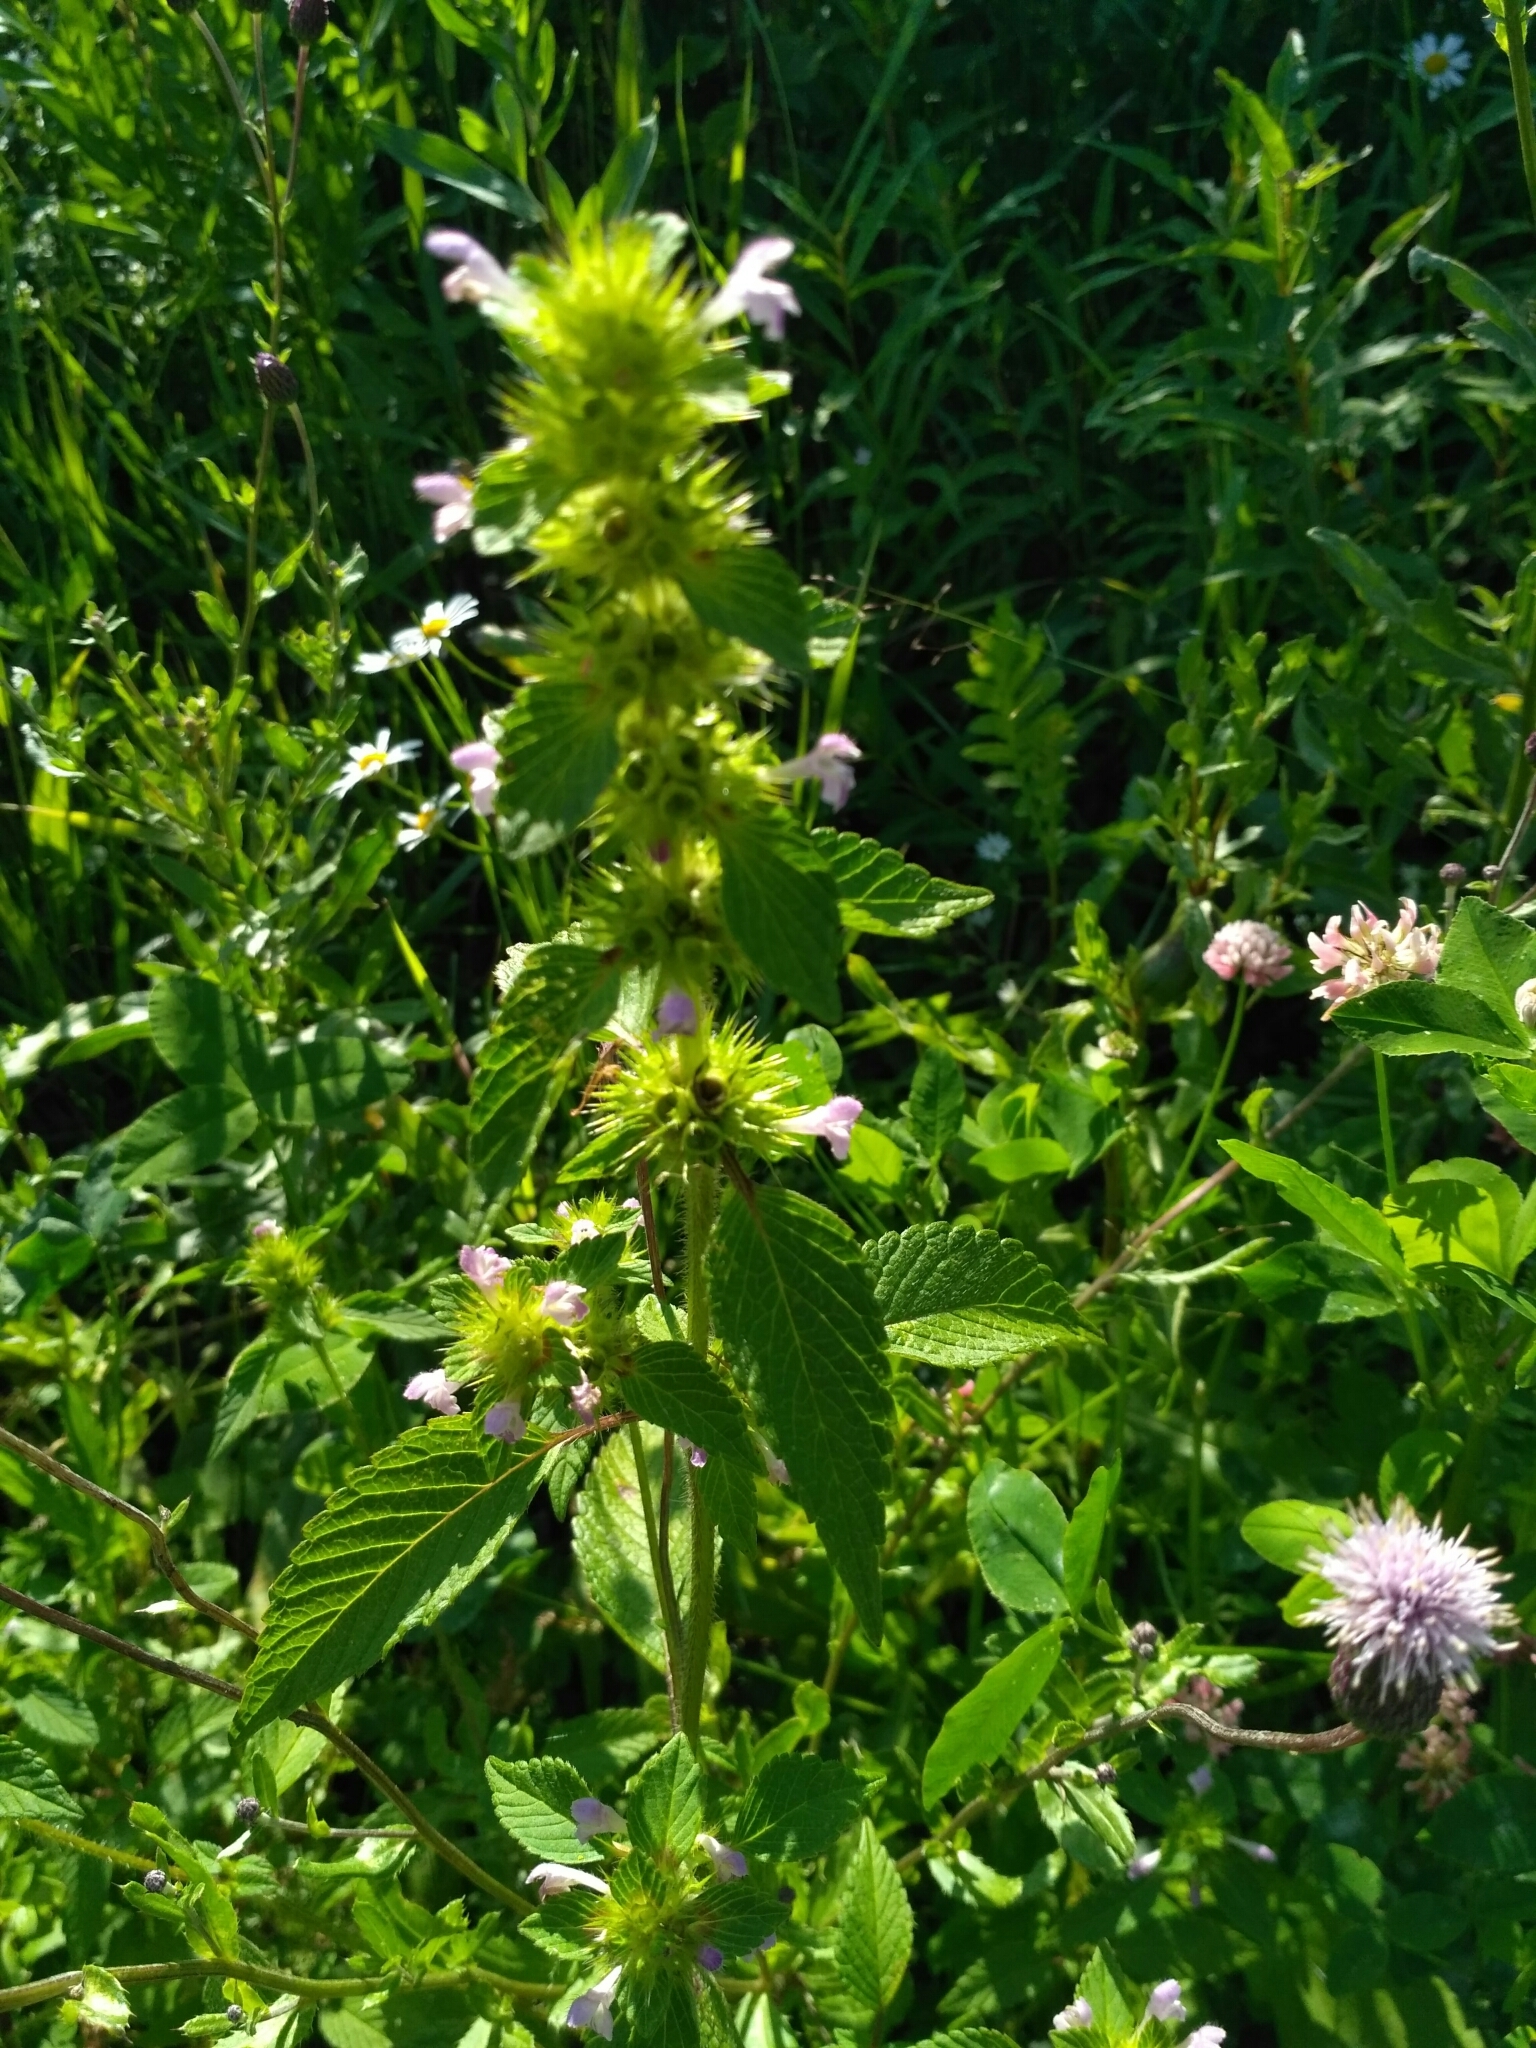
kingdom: Plantae
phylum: Tracheophyta
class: Magnoliopsida
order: Lamiales
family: Lamiaceae
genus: Galeopsis
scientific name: Galeopsis bifida
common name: Bifid hemp-nettle
